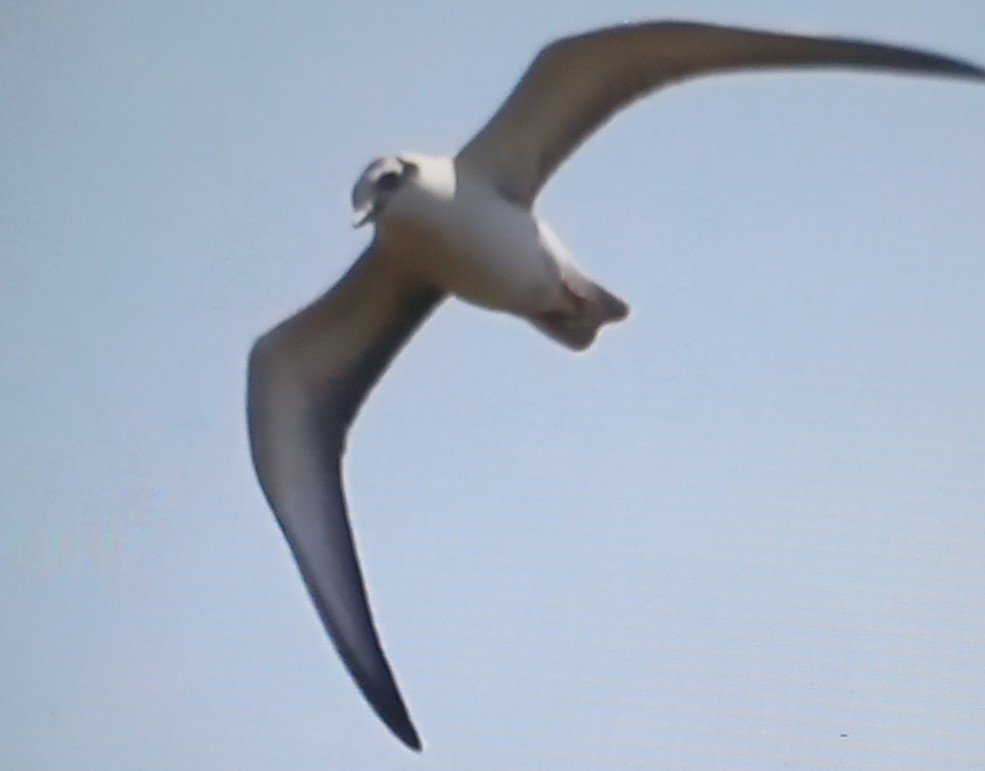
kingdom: Animalia
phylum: Chordata
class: Aves
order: Charadriiformes
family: Laridae
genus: Chroicocephalus
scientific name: Chroicocephalus ridibundus
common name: Black-headed gull
